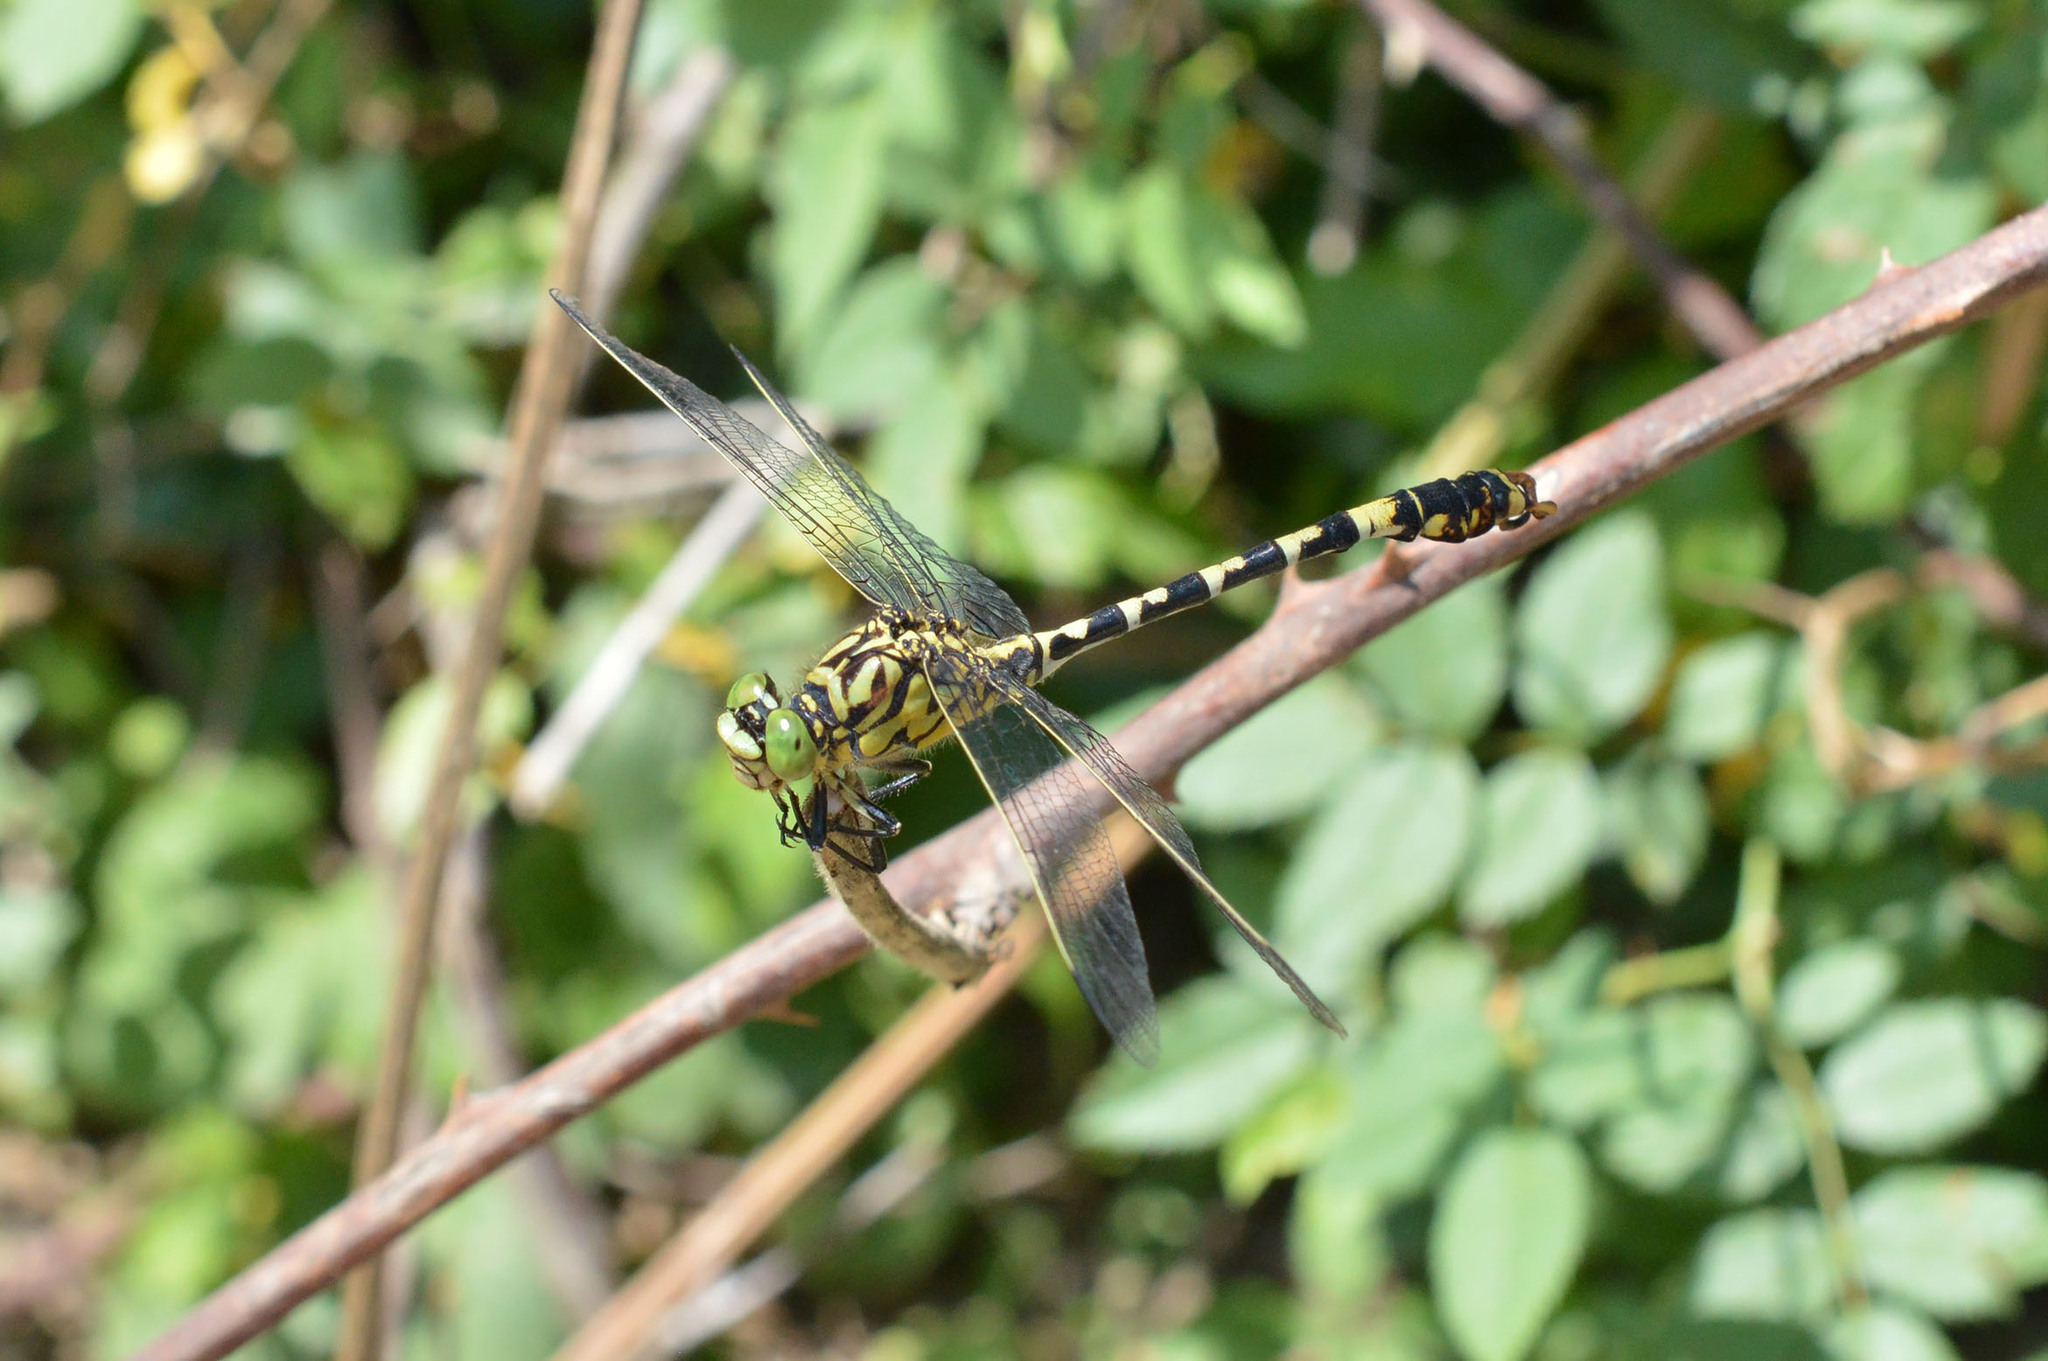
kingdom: Animalia
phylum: Arthropoda
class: Insecta
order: Odonata
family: Gomphidae
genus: Onychogomphus
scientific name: Onychogomphus forcipatus
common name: Small pincertail
